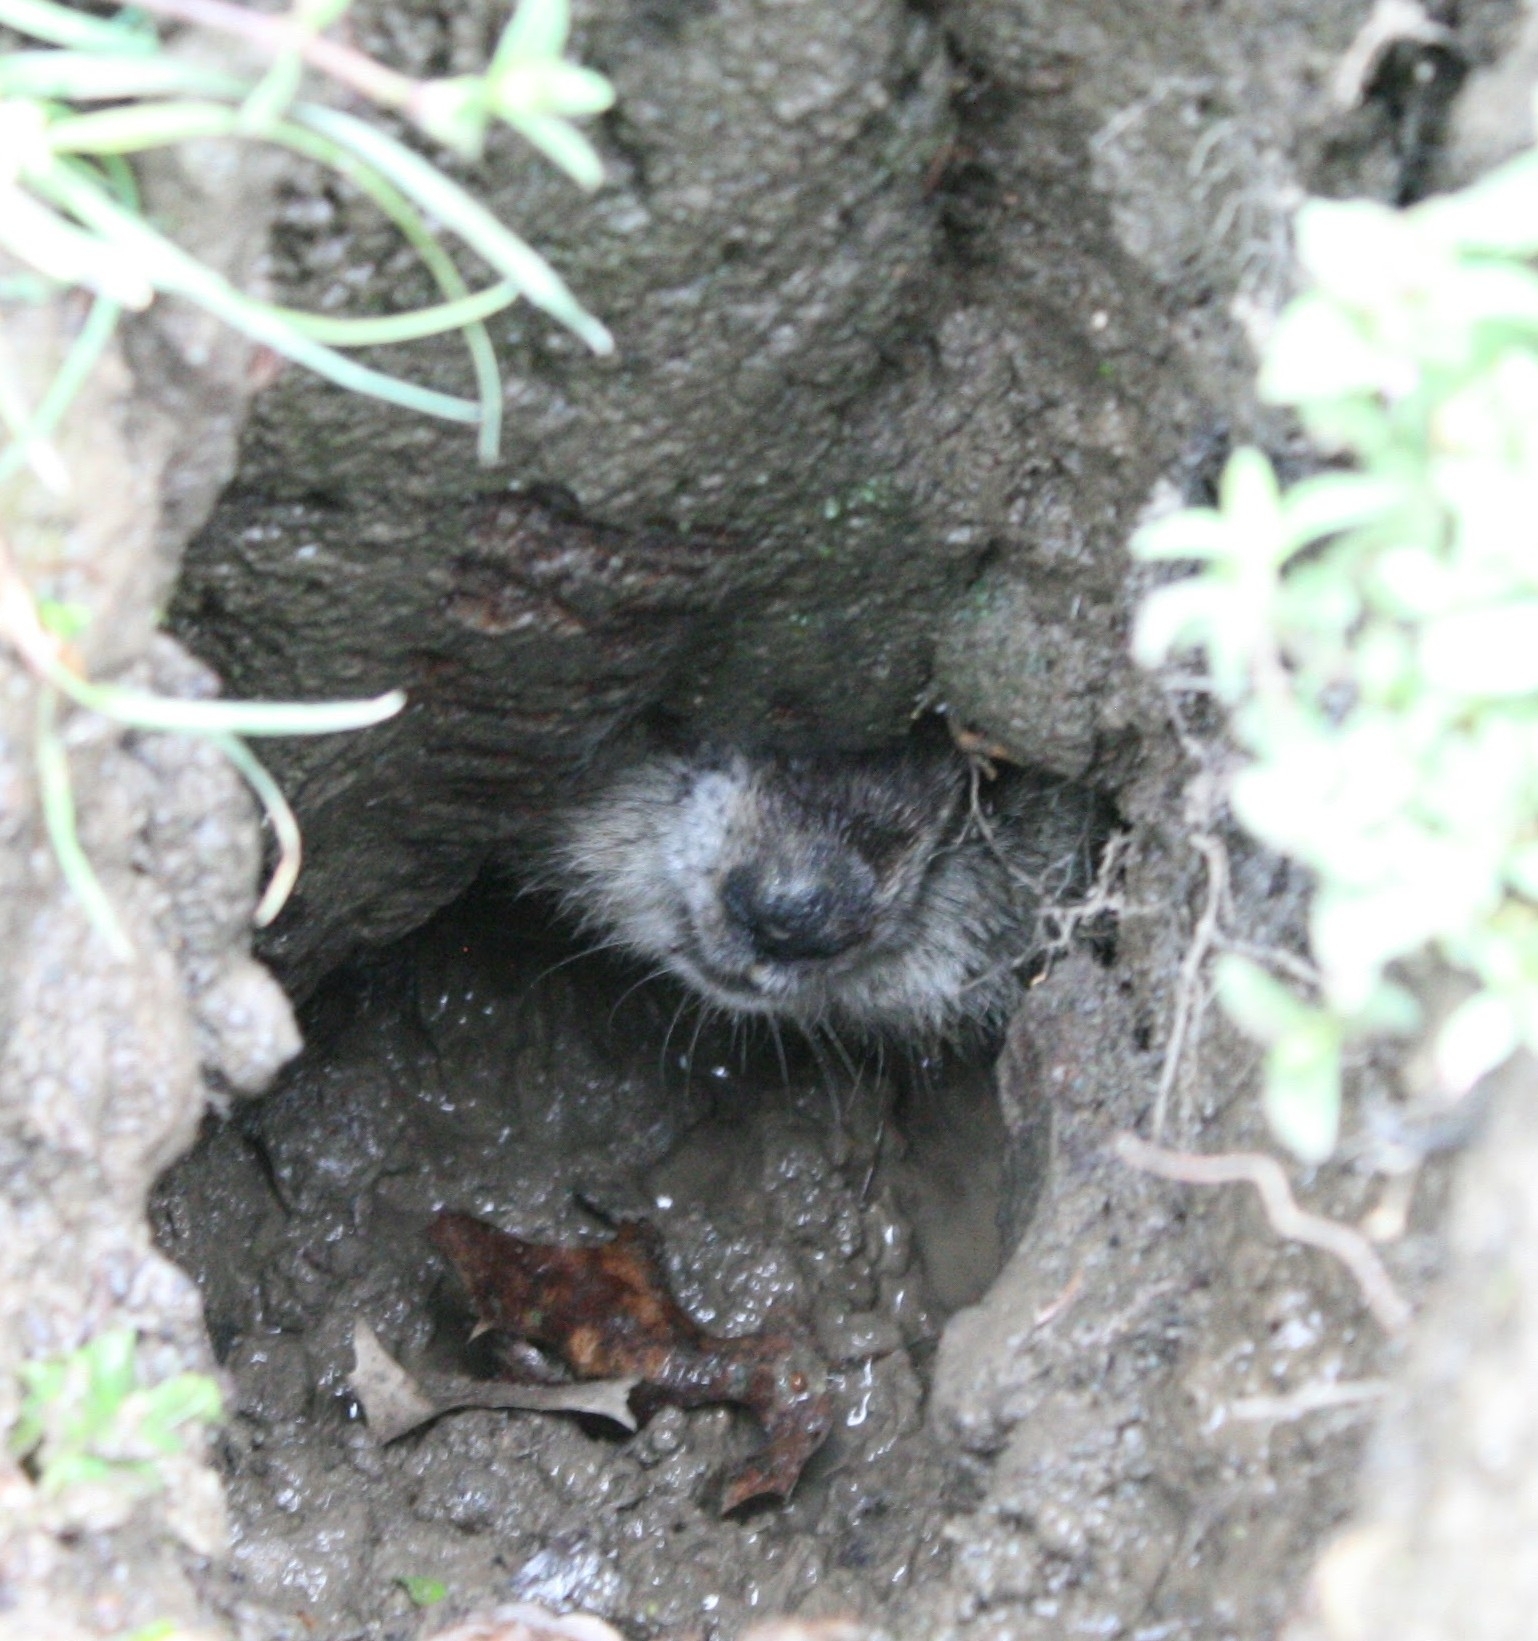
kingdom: Animalia
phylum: Chordata
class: Mammalia
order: Rodentia
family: Sciuridae
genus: Marmota
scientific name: Marmota monax
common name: Groundhog
